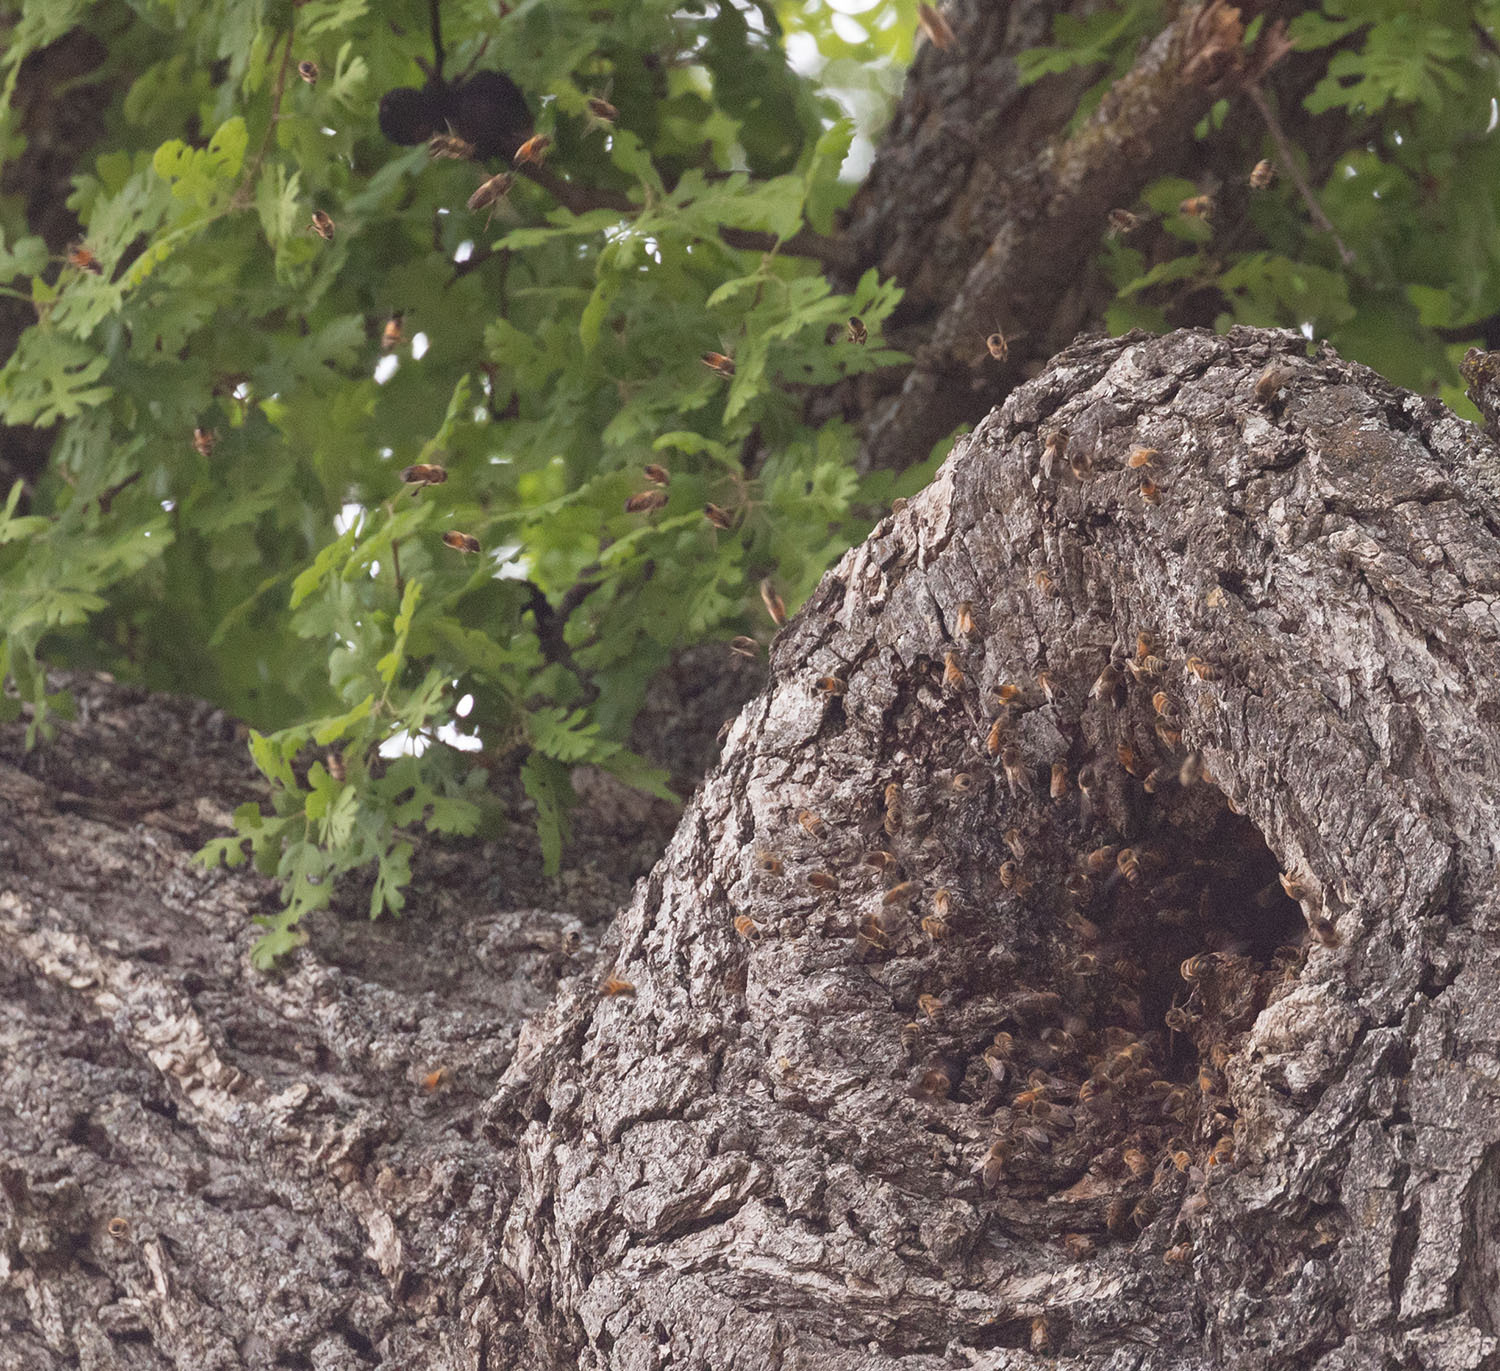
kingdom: Animalia
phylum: Arthropoda
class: Insecta
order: Hymenoptera
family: Apidae
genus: Apis
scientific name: Apis mellifera
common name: Honey bee
